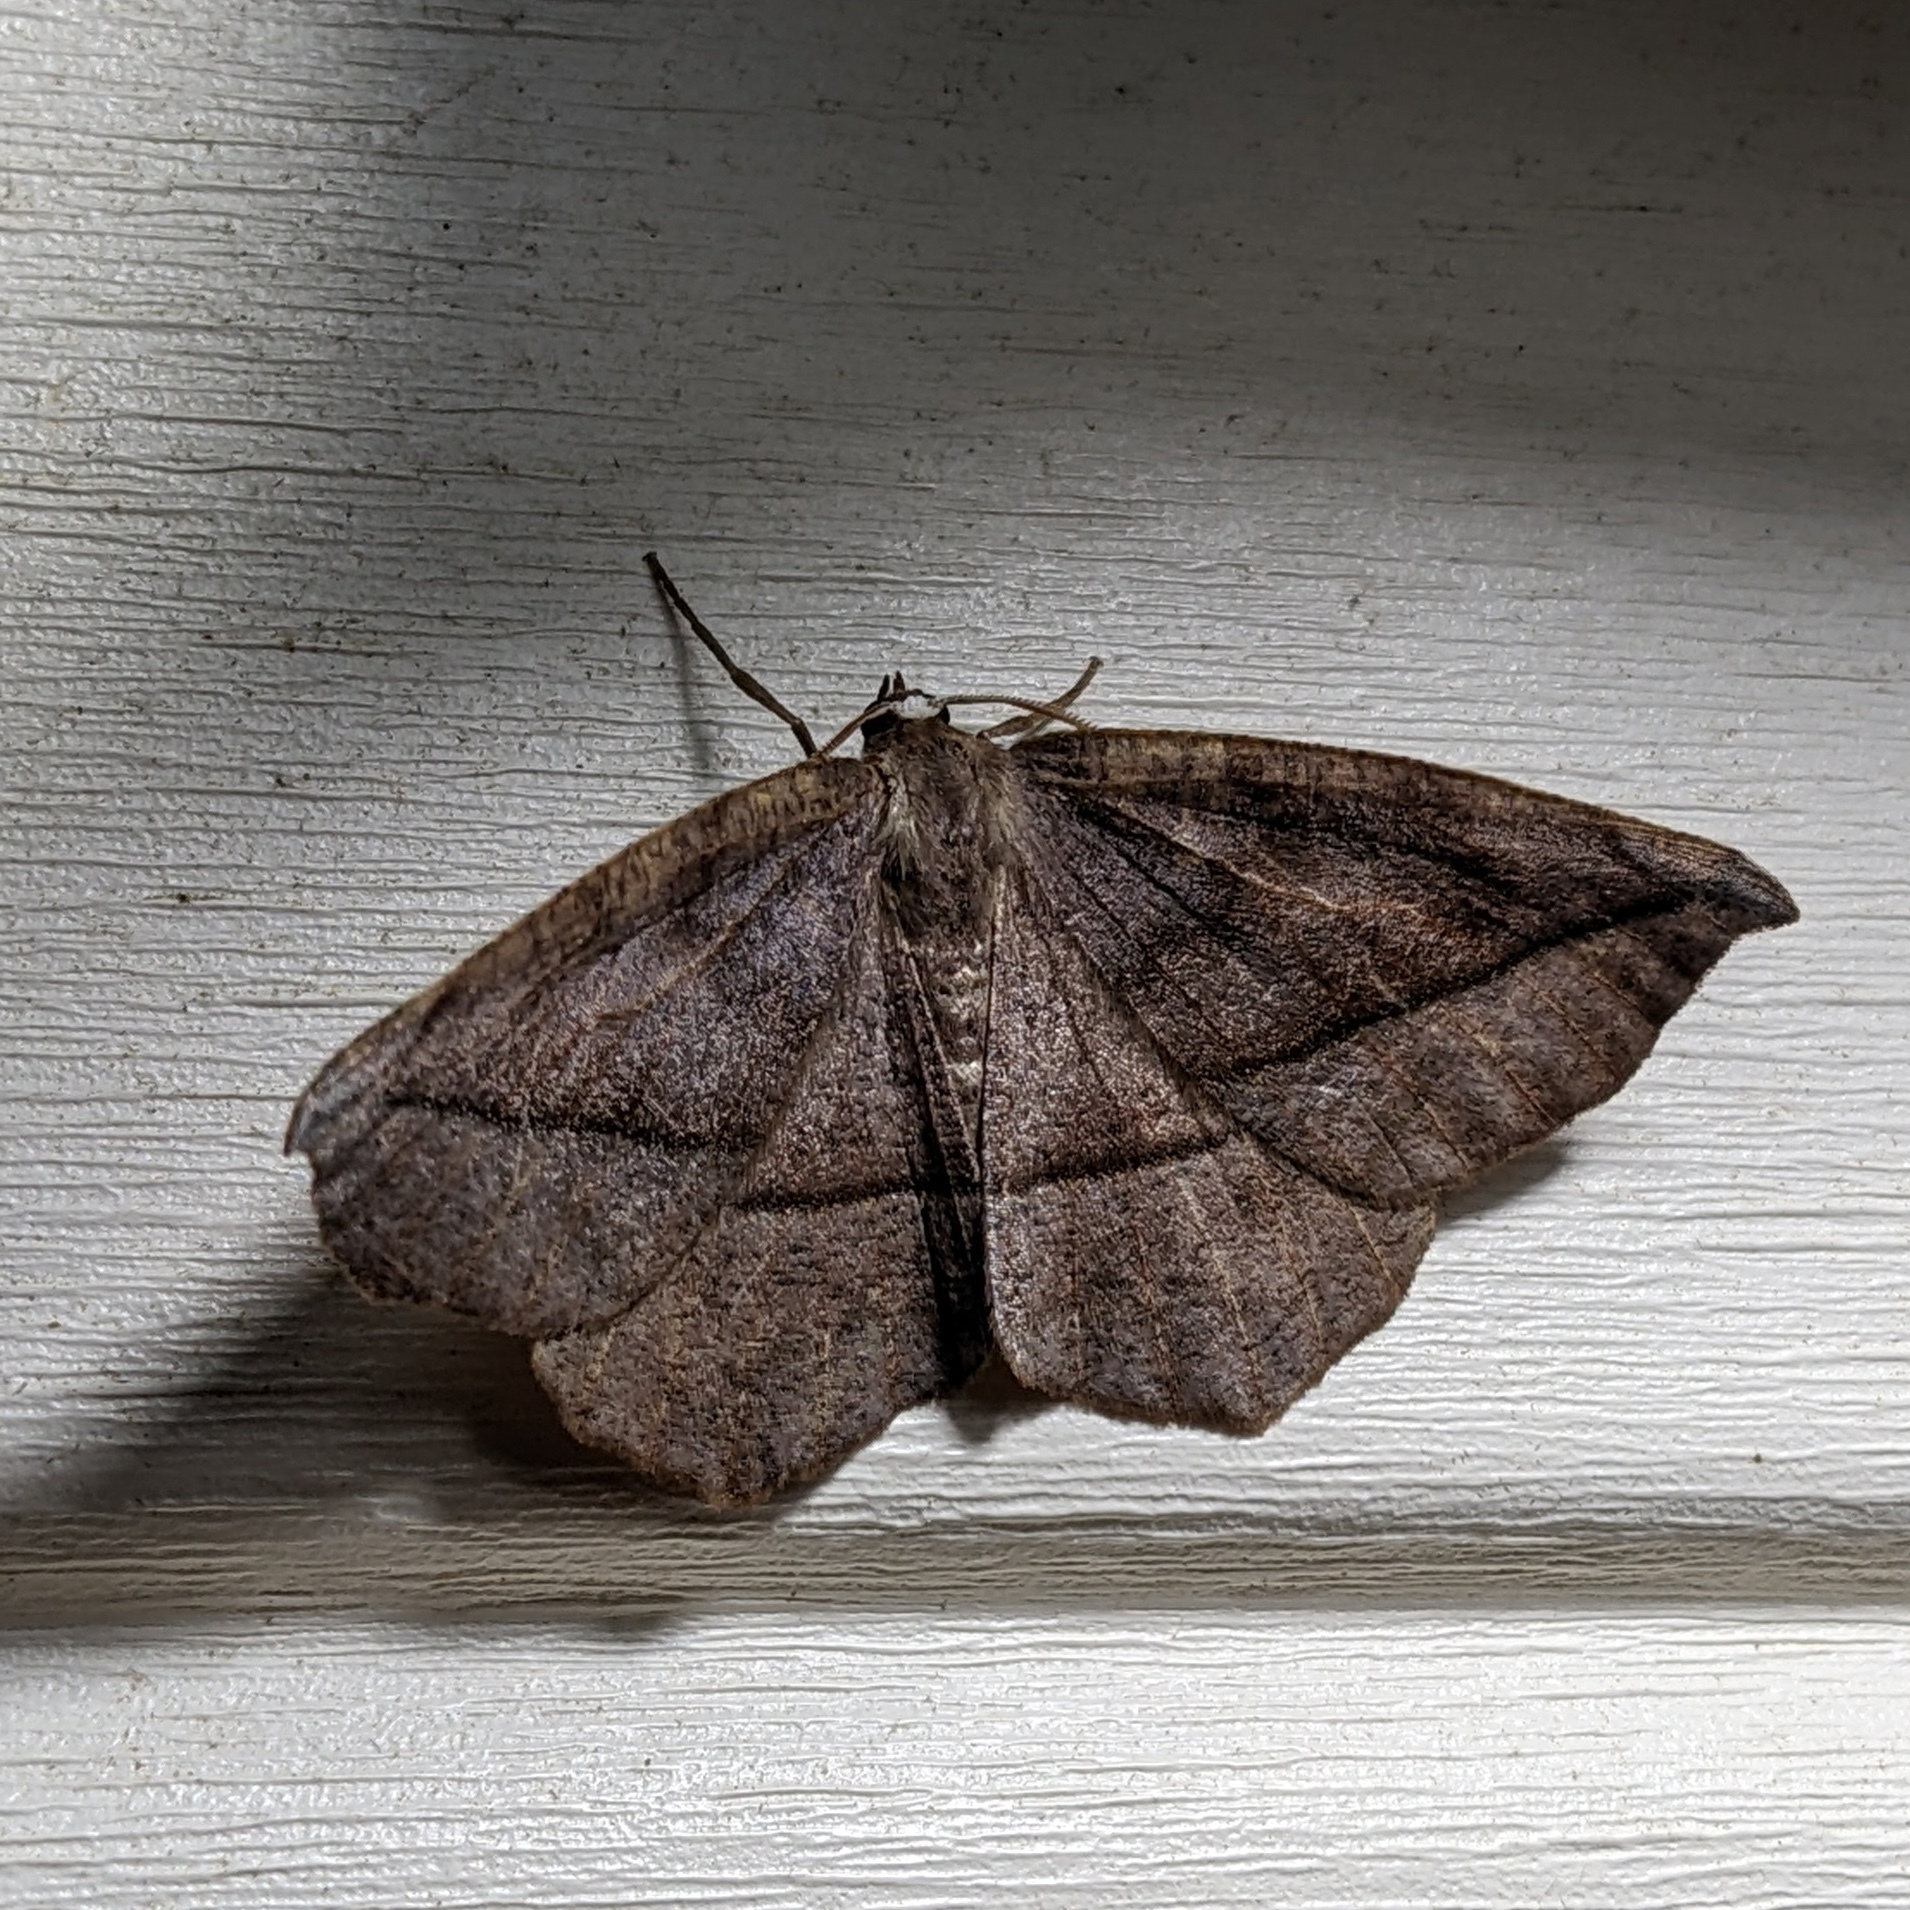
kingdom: Animalia
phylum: Arthropoda
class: Insecta
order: Lepidoptera
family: Geometridae
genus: Eutrapela
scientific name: Eutrapela clemataria
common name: Curved-toothed geometer
